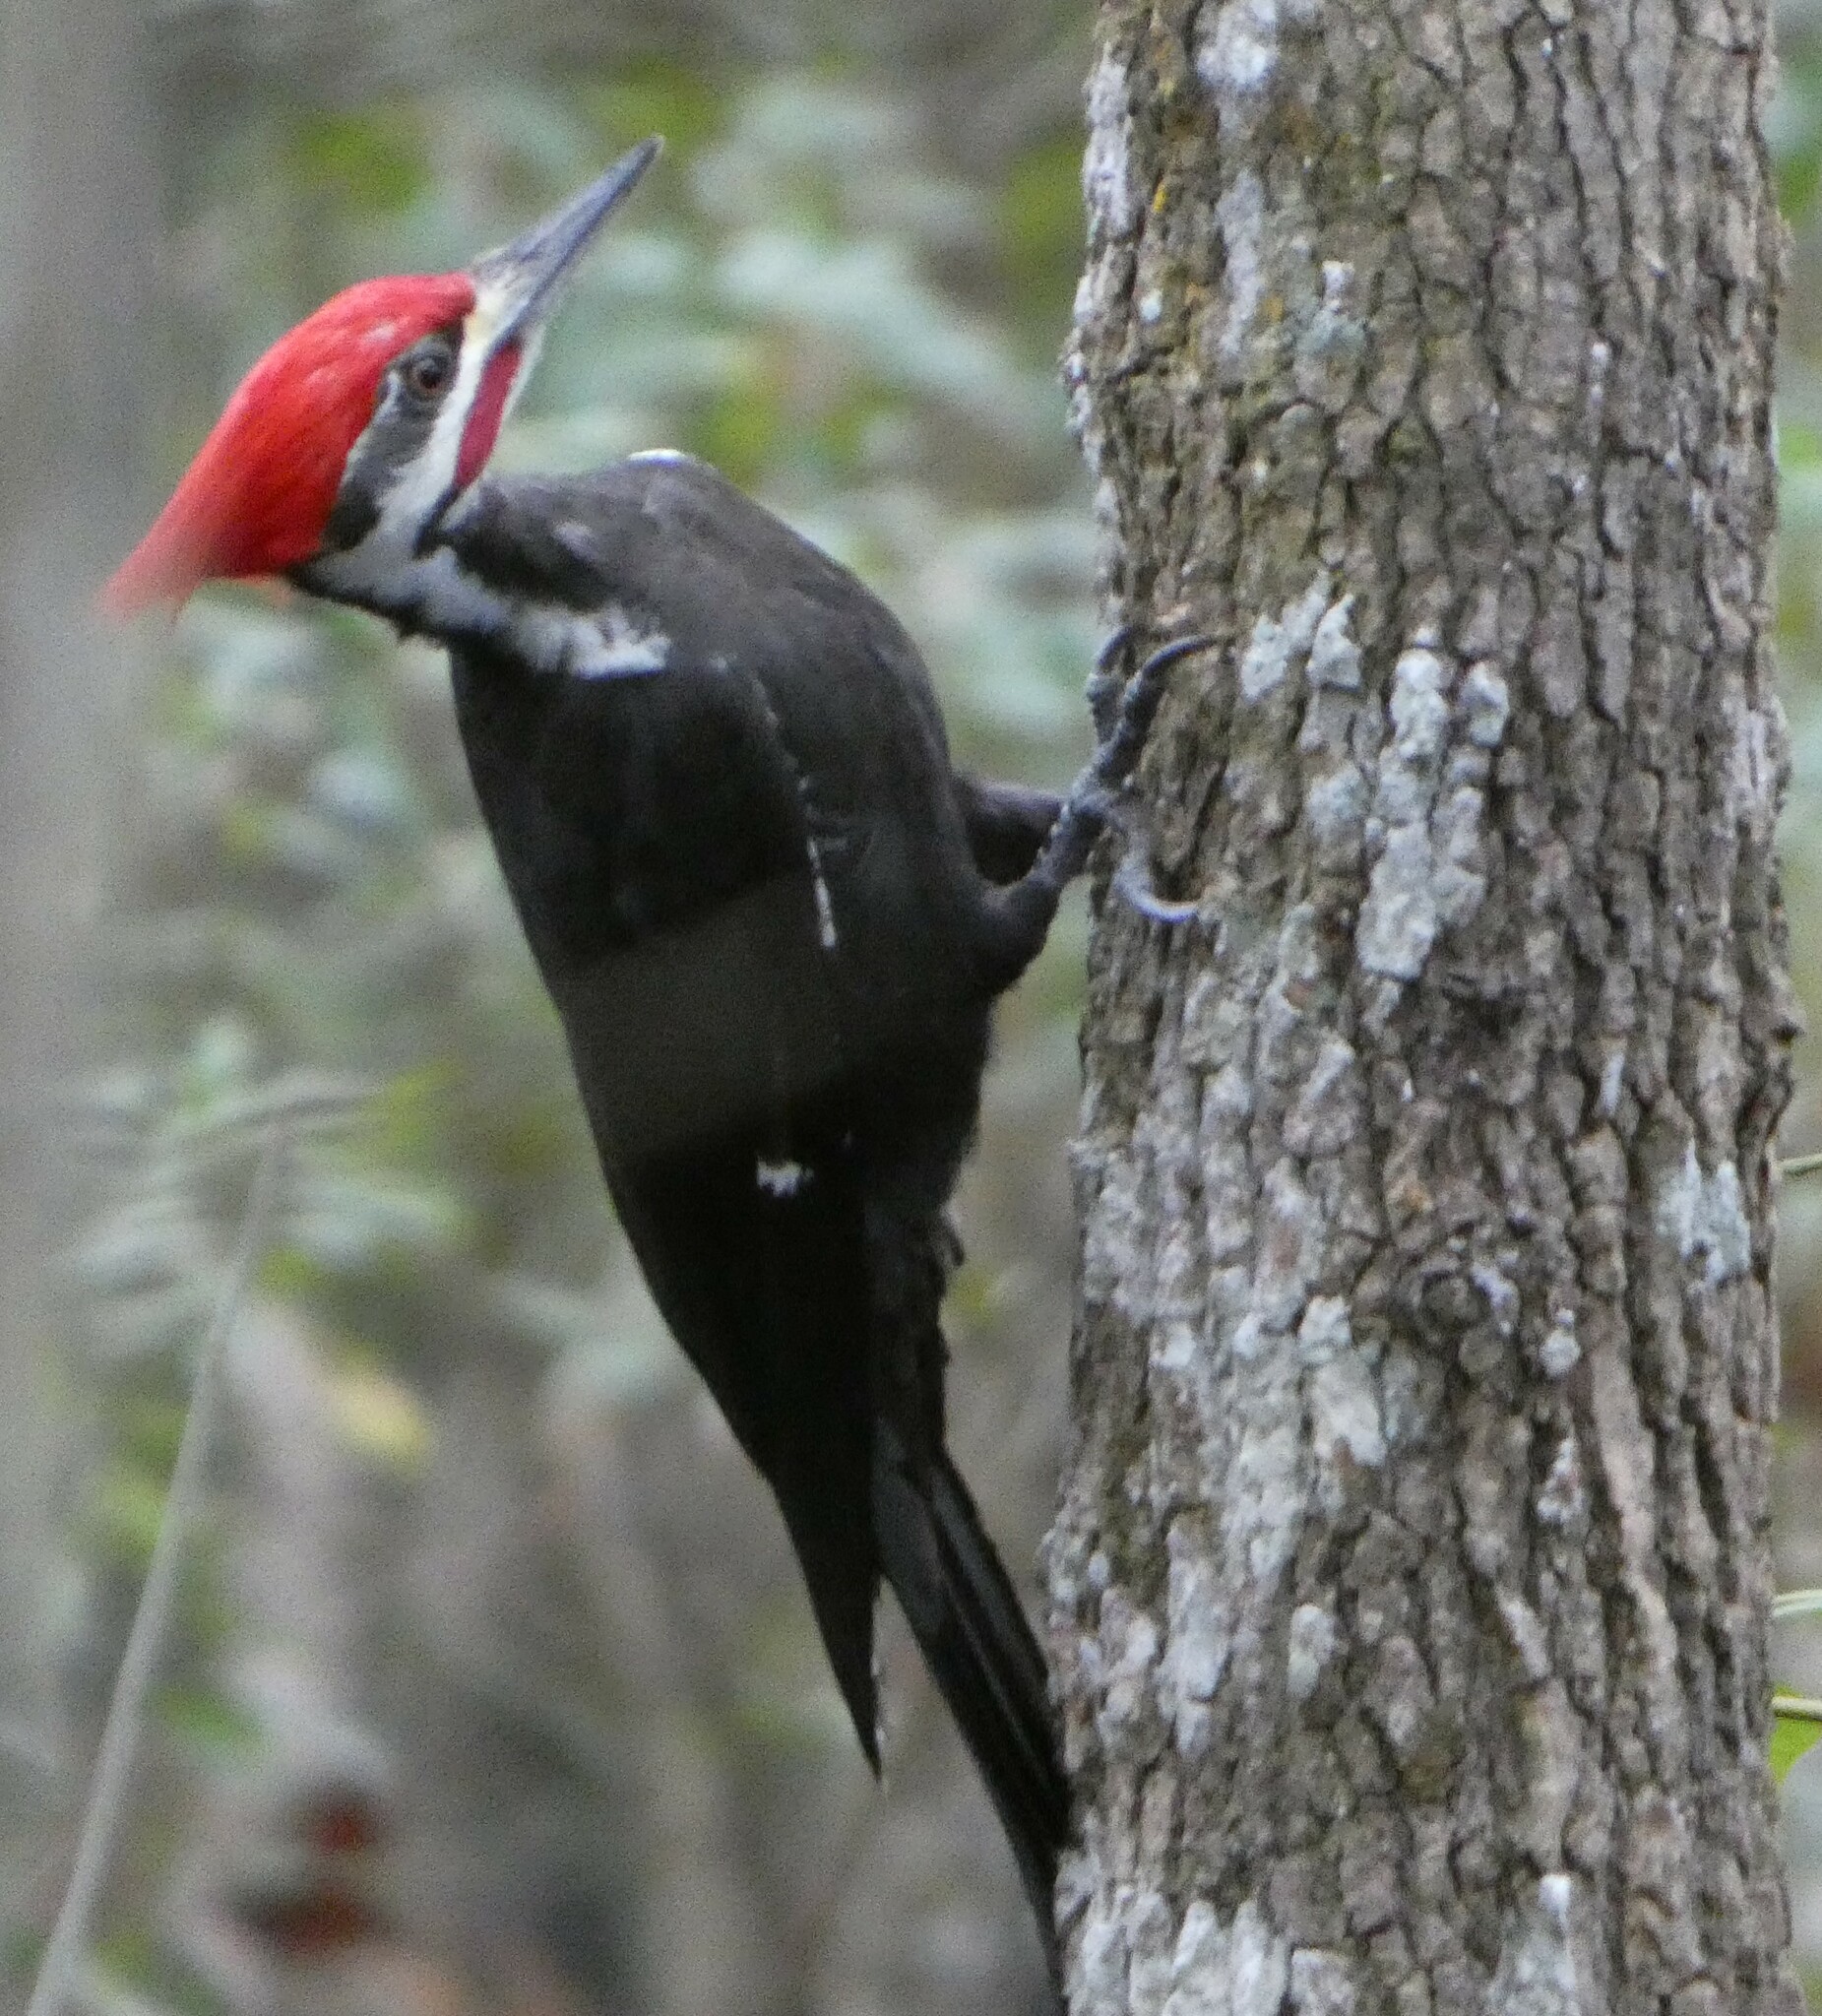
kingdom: Animalia
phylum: Chordata
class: Aves
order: Piciformes
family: Picidae
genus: Dryocopus
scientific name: Dryocopus pileatus
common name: Pileated woodpecker
